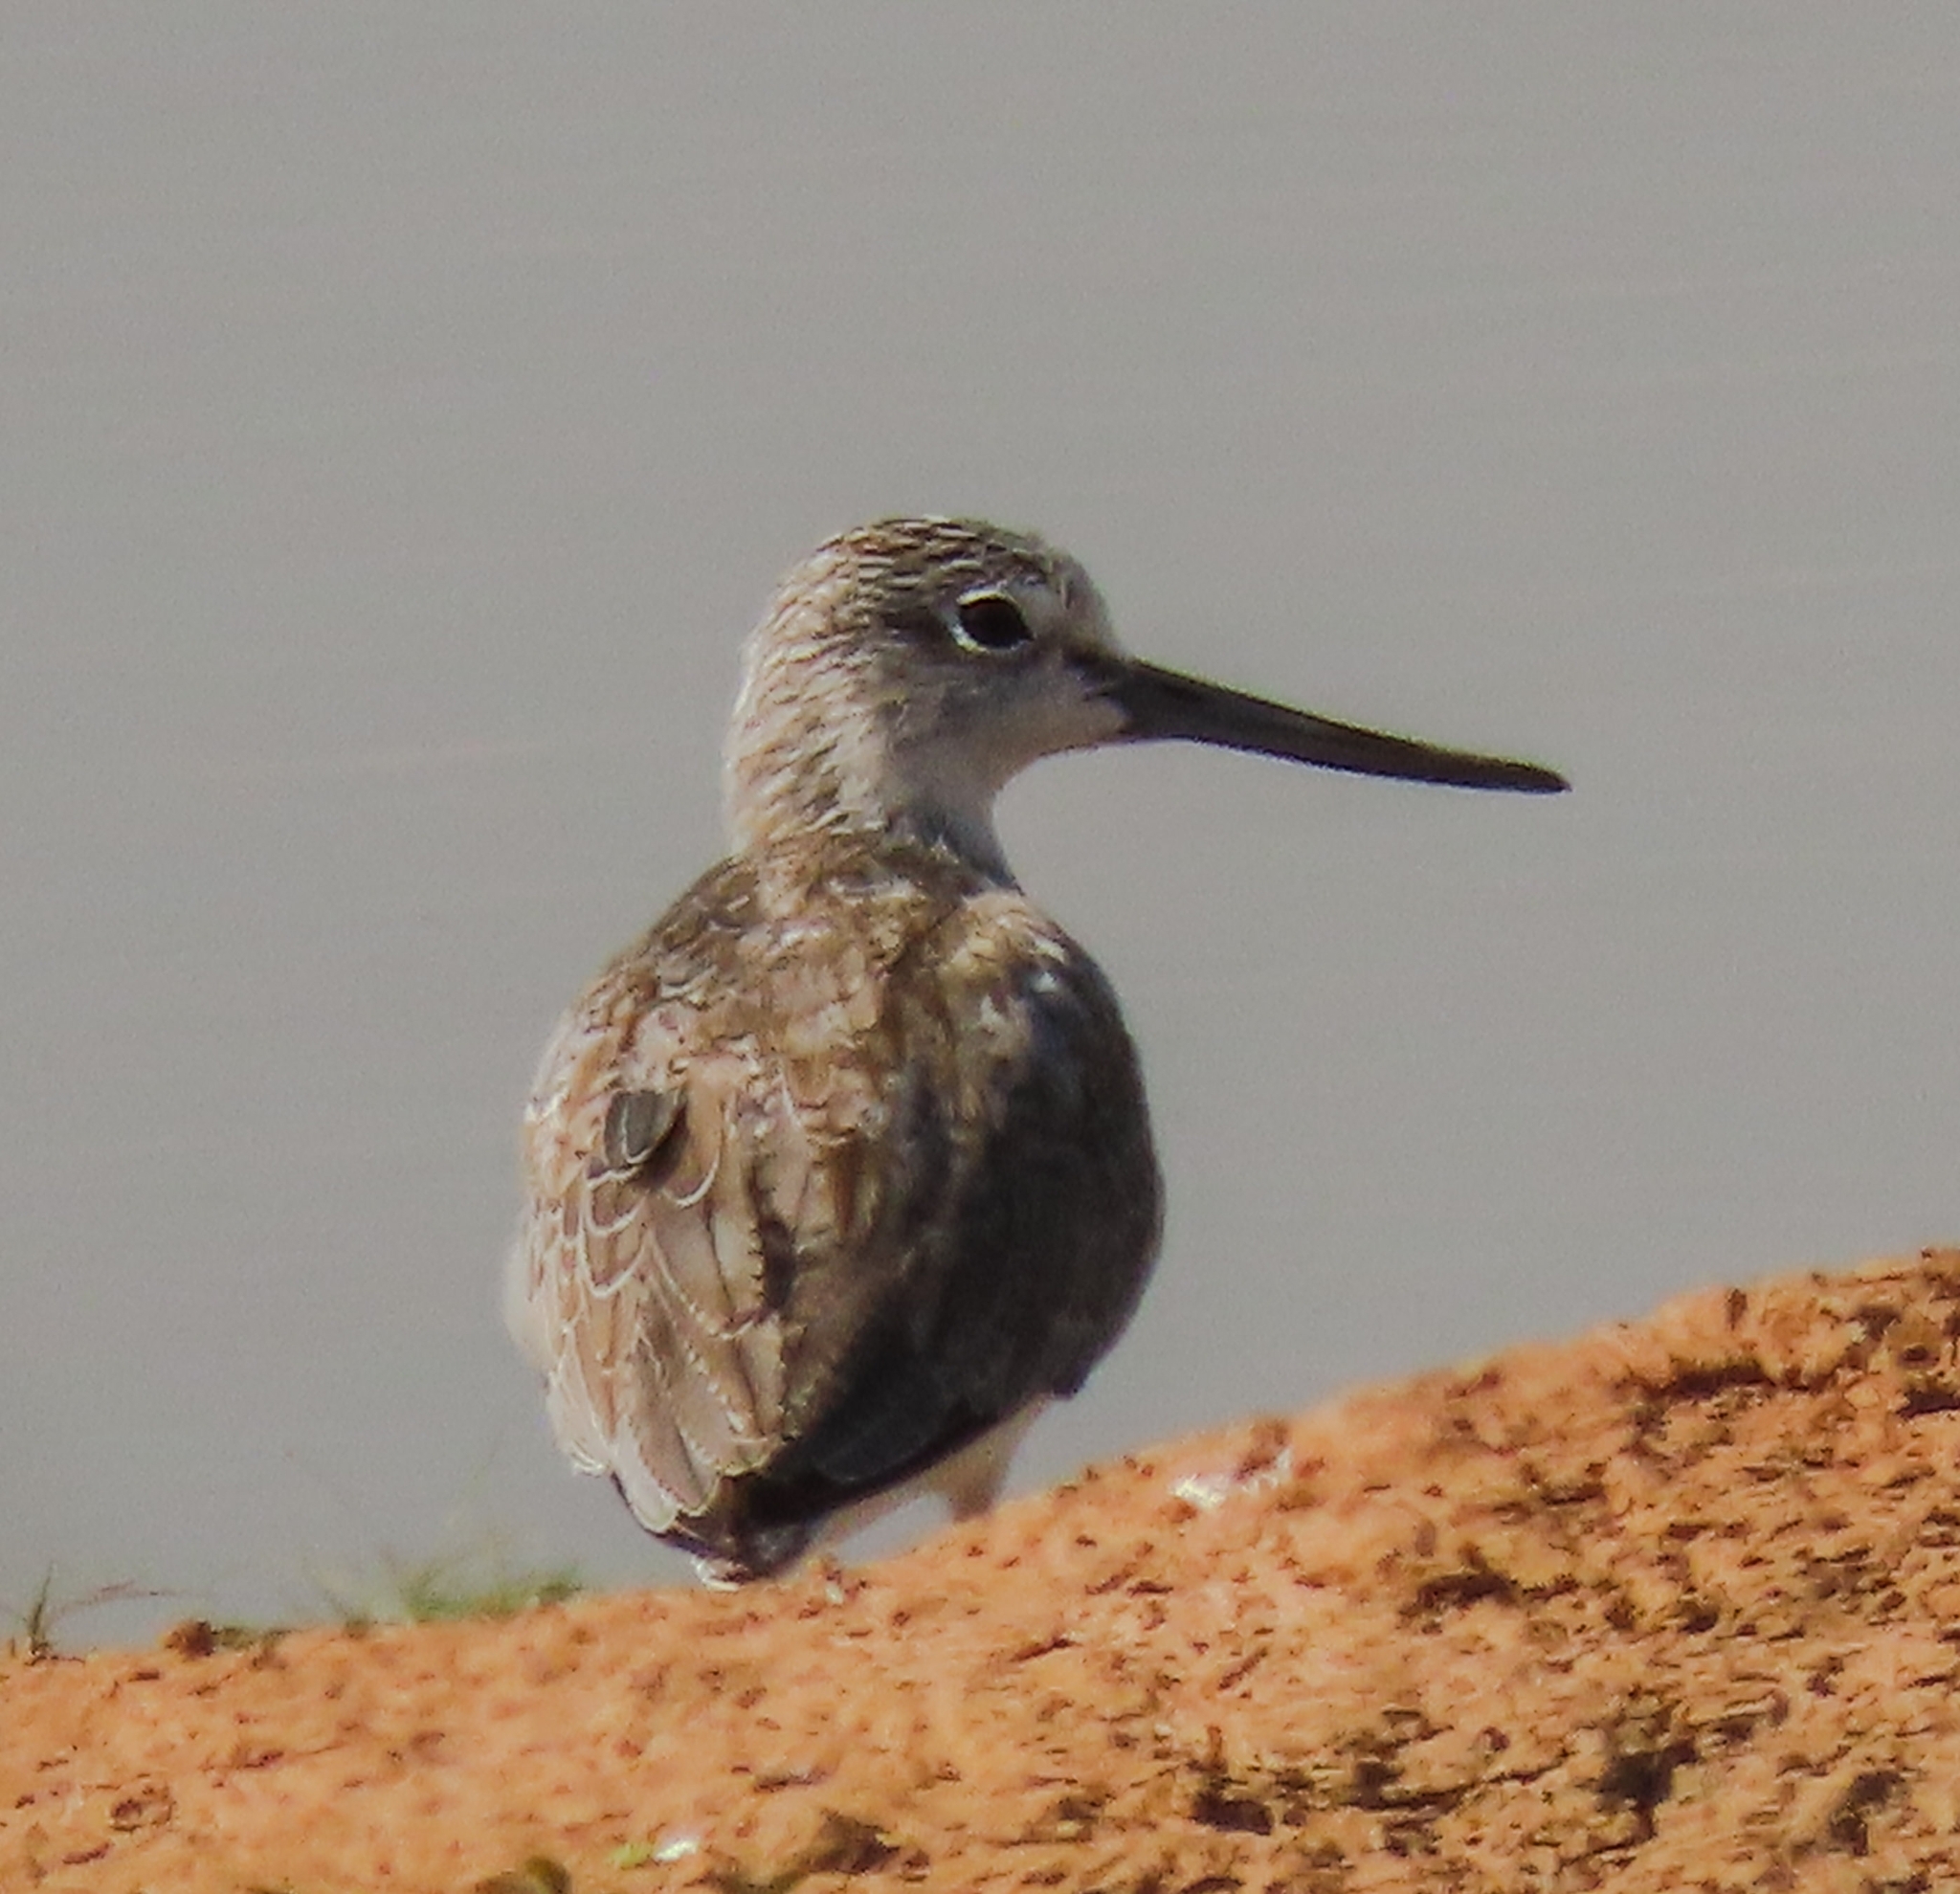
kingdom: Animalia
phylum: Chordata
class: Aves
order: Charadriiformes
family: Scolopacidae
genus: Tringa
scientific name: Tringa nebularia
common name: Common greenshank
